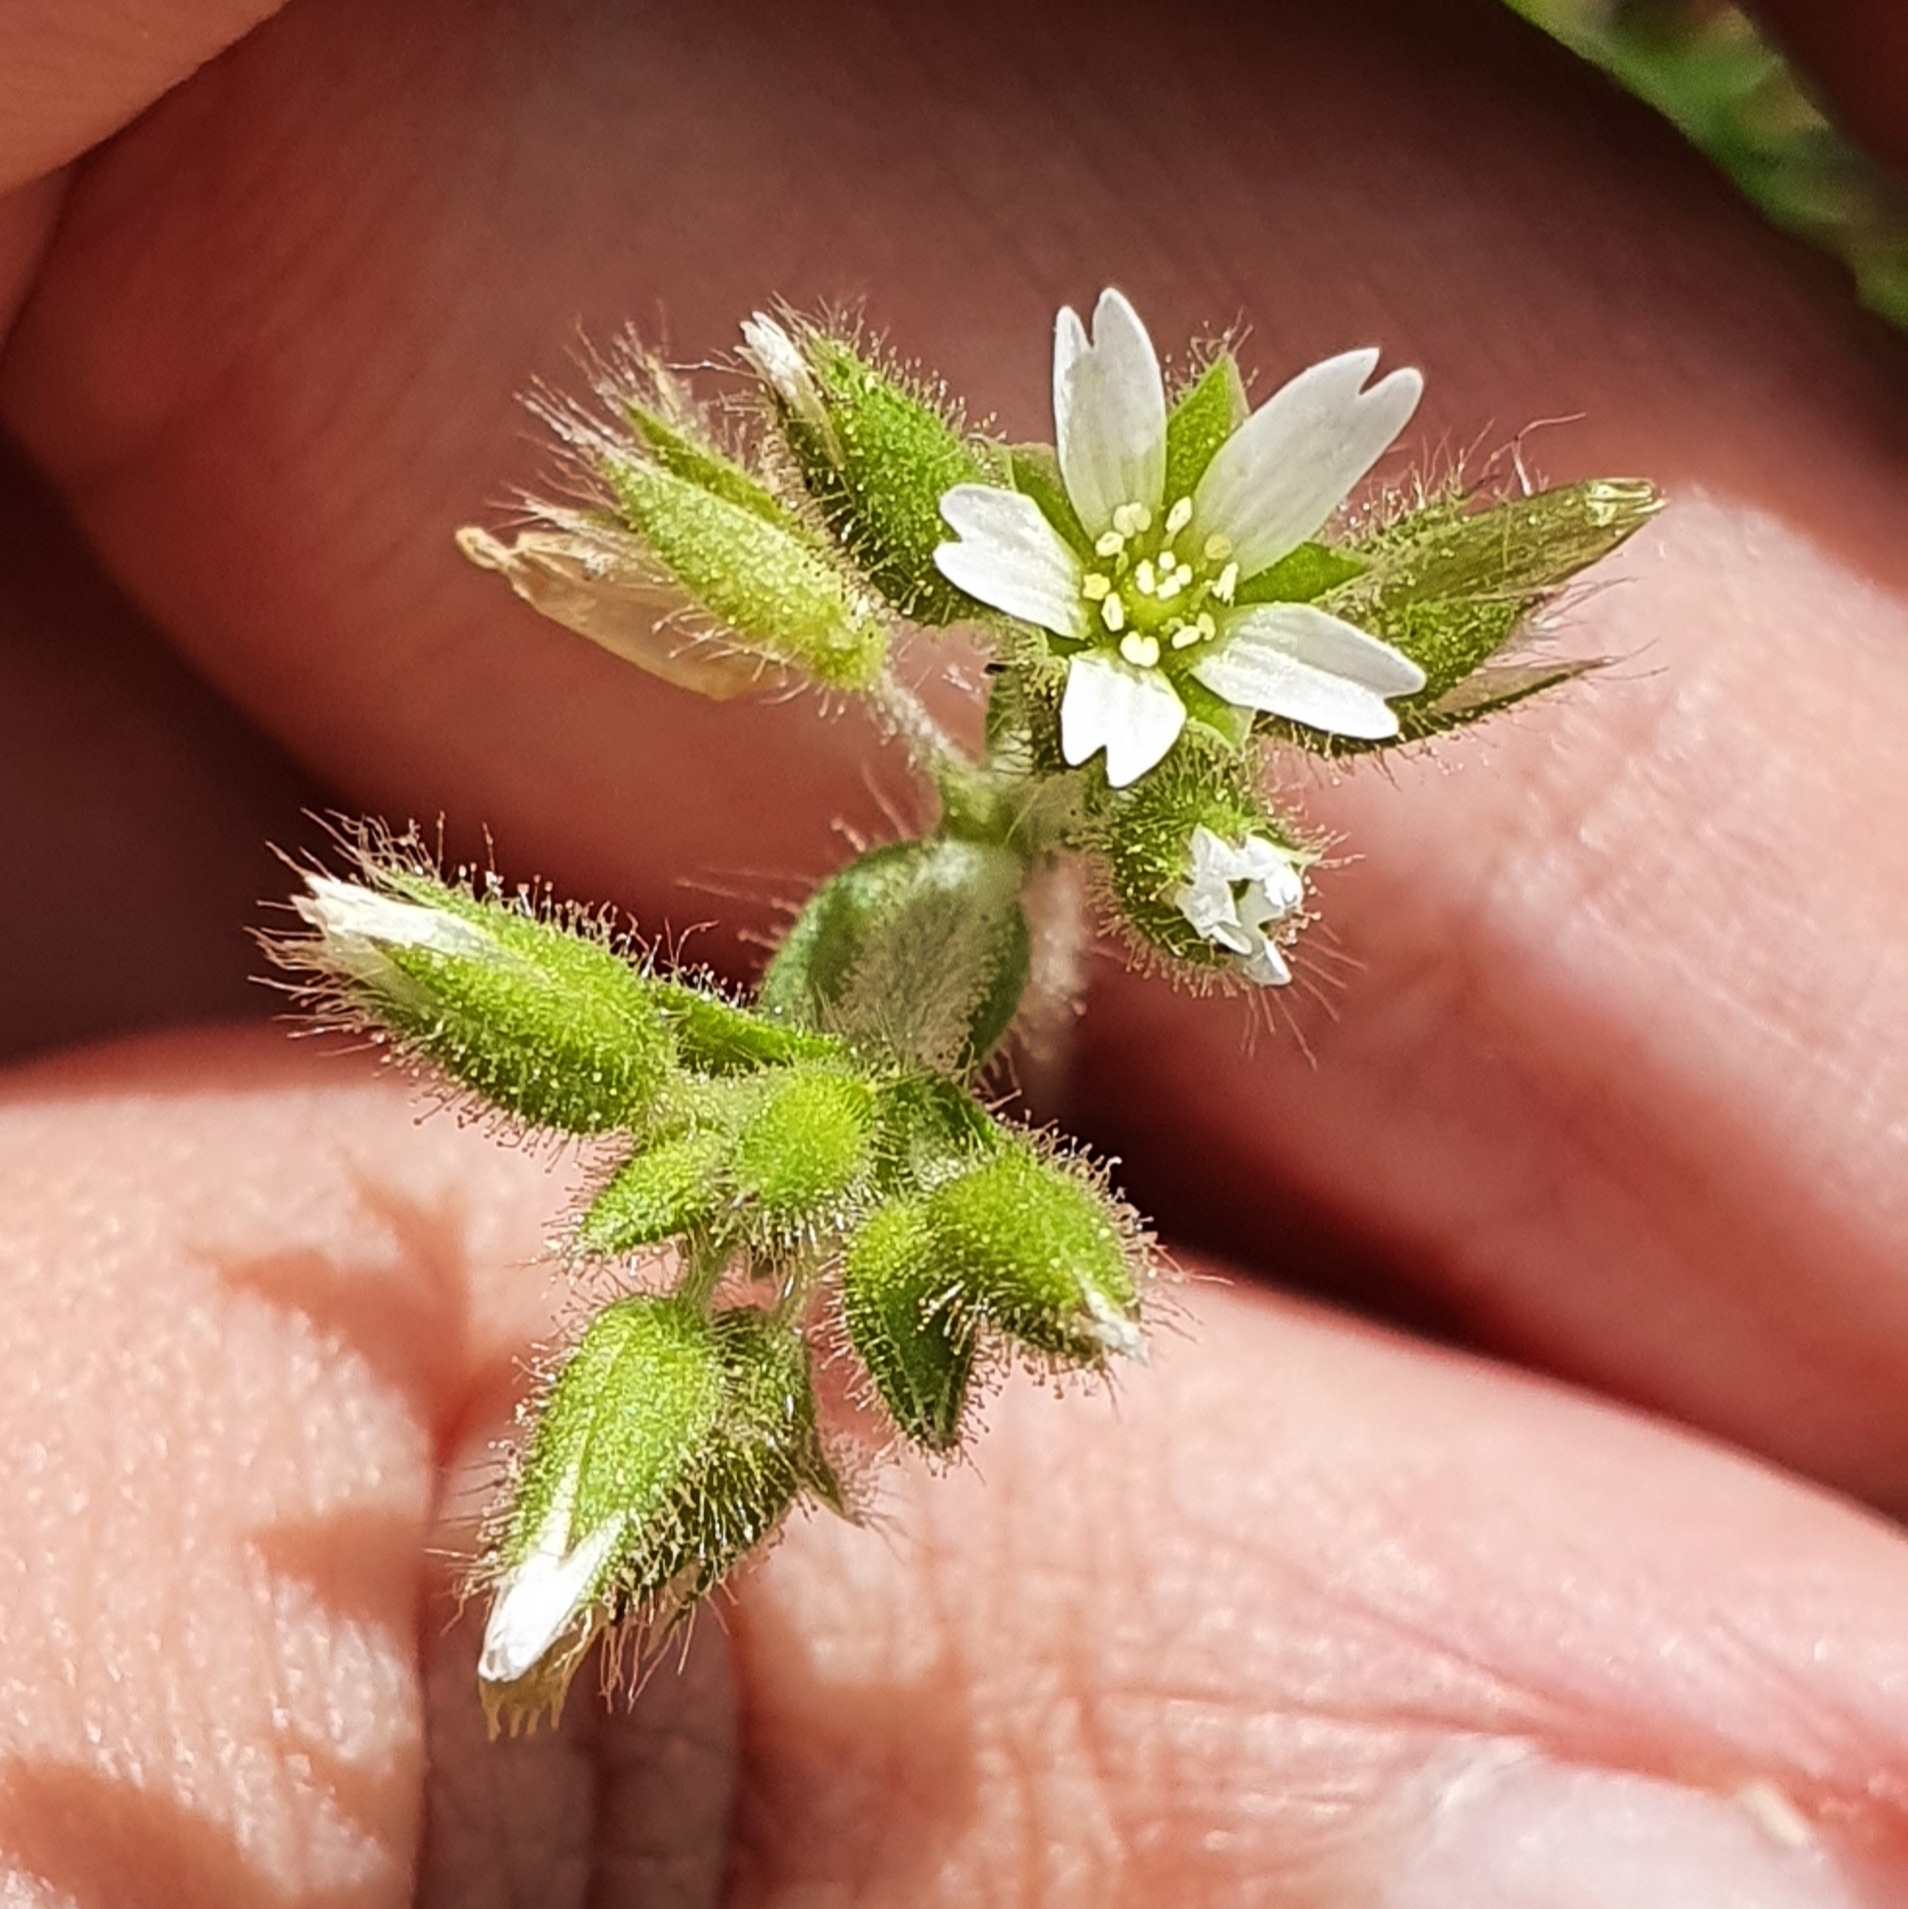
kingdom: Plantae
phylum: Tracheophyta
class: Magnoliopsida
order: Caryophyllales
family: Caryophyllaceae
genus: Cerastium
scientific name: Cerastium glomeratum
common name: Sticky chickweed
